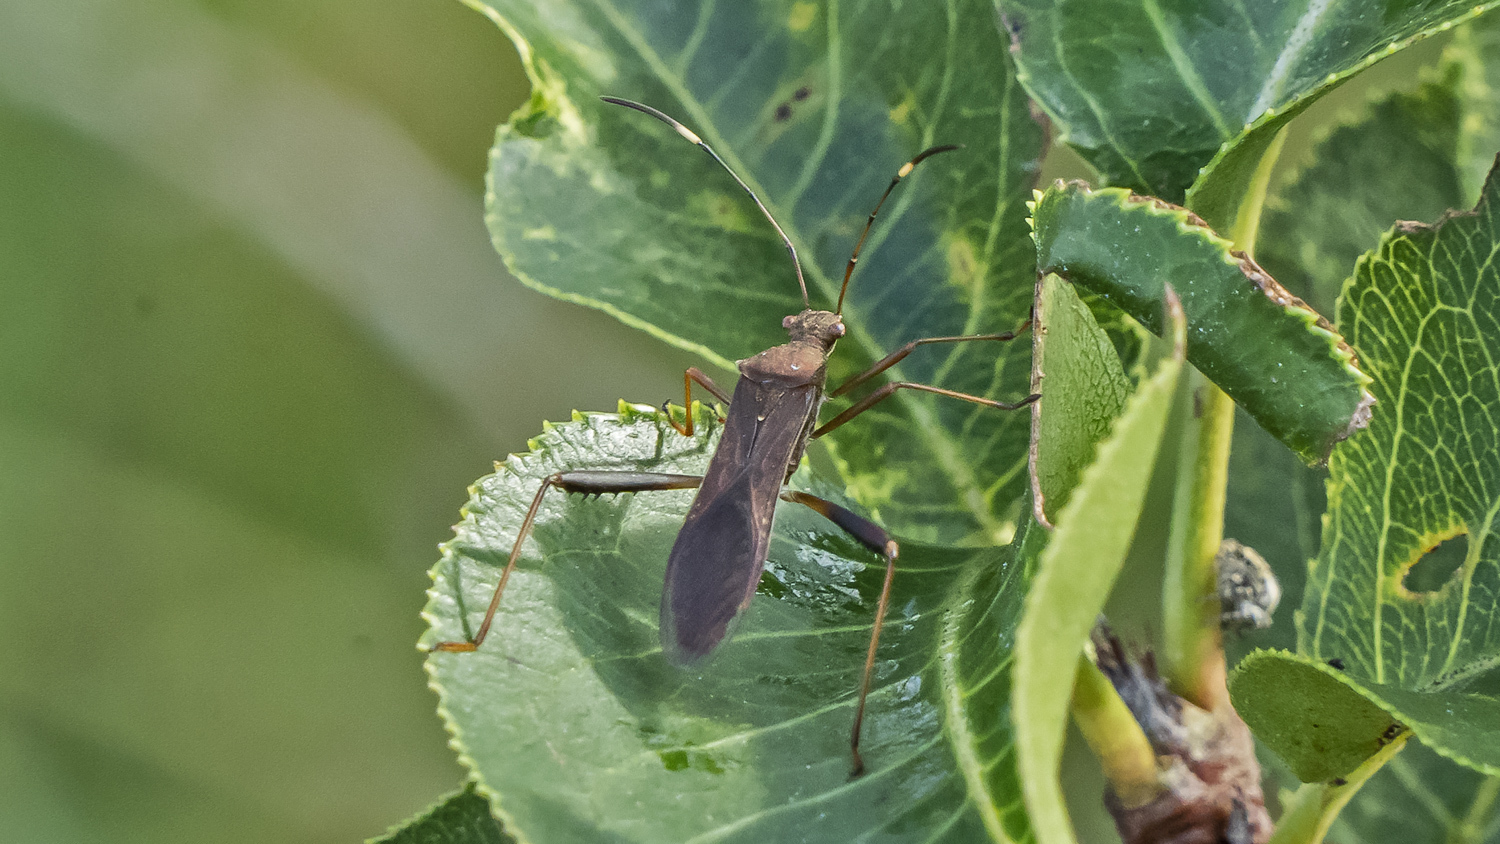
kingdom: Animalia
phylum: Arthropoda
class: Insecta
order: Hemiptera
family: Alydidae
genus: Megalotomus
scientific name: Megalotomus quinquespinosus
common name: Lupine bug
